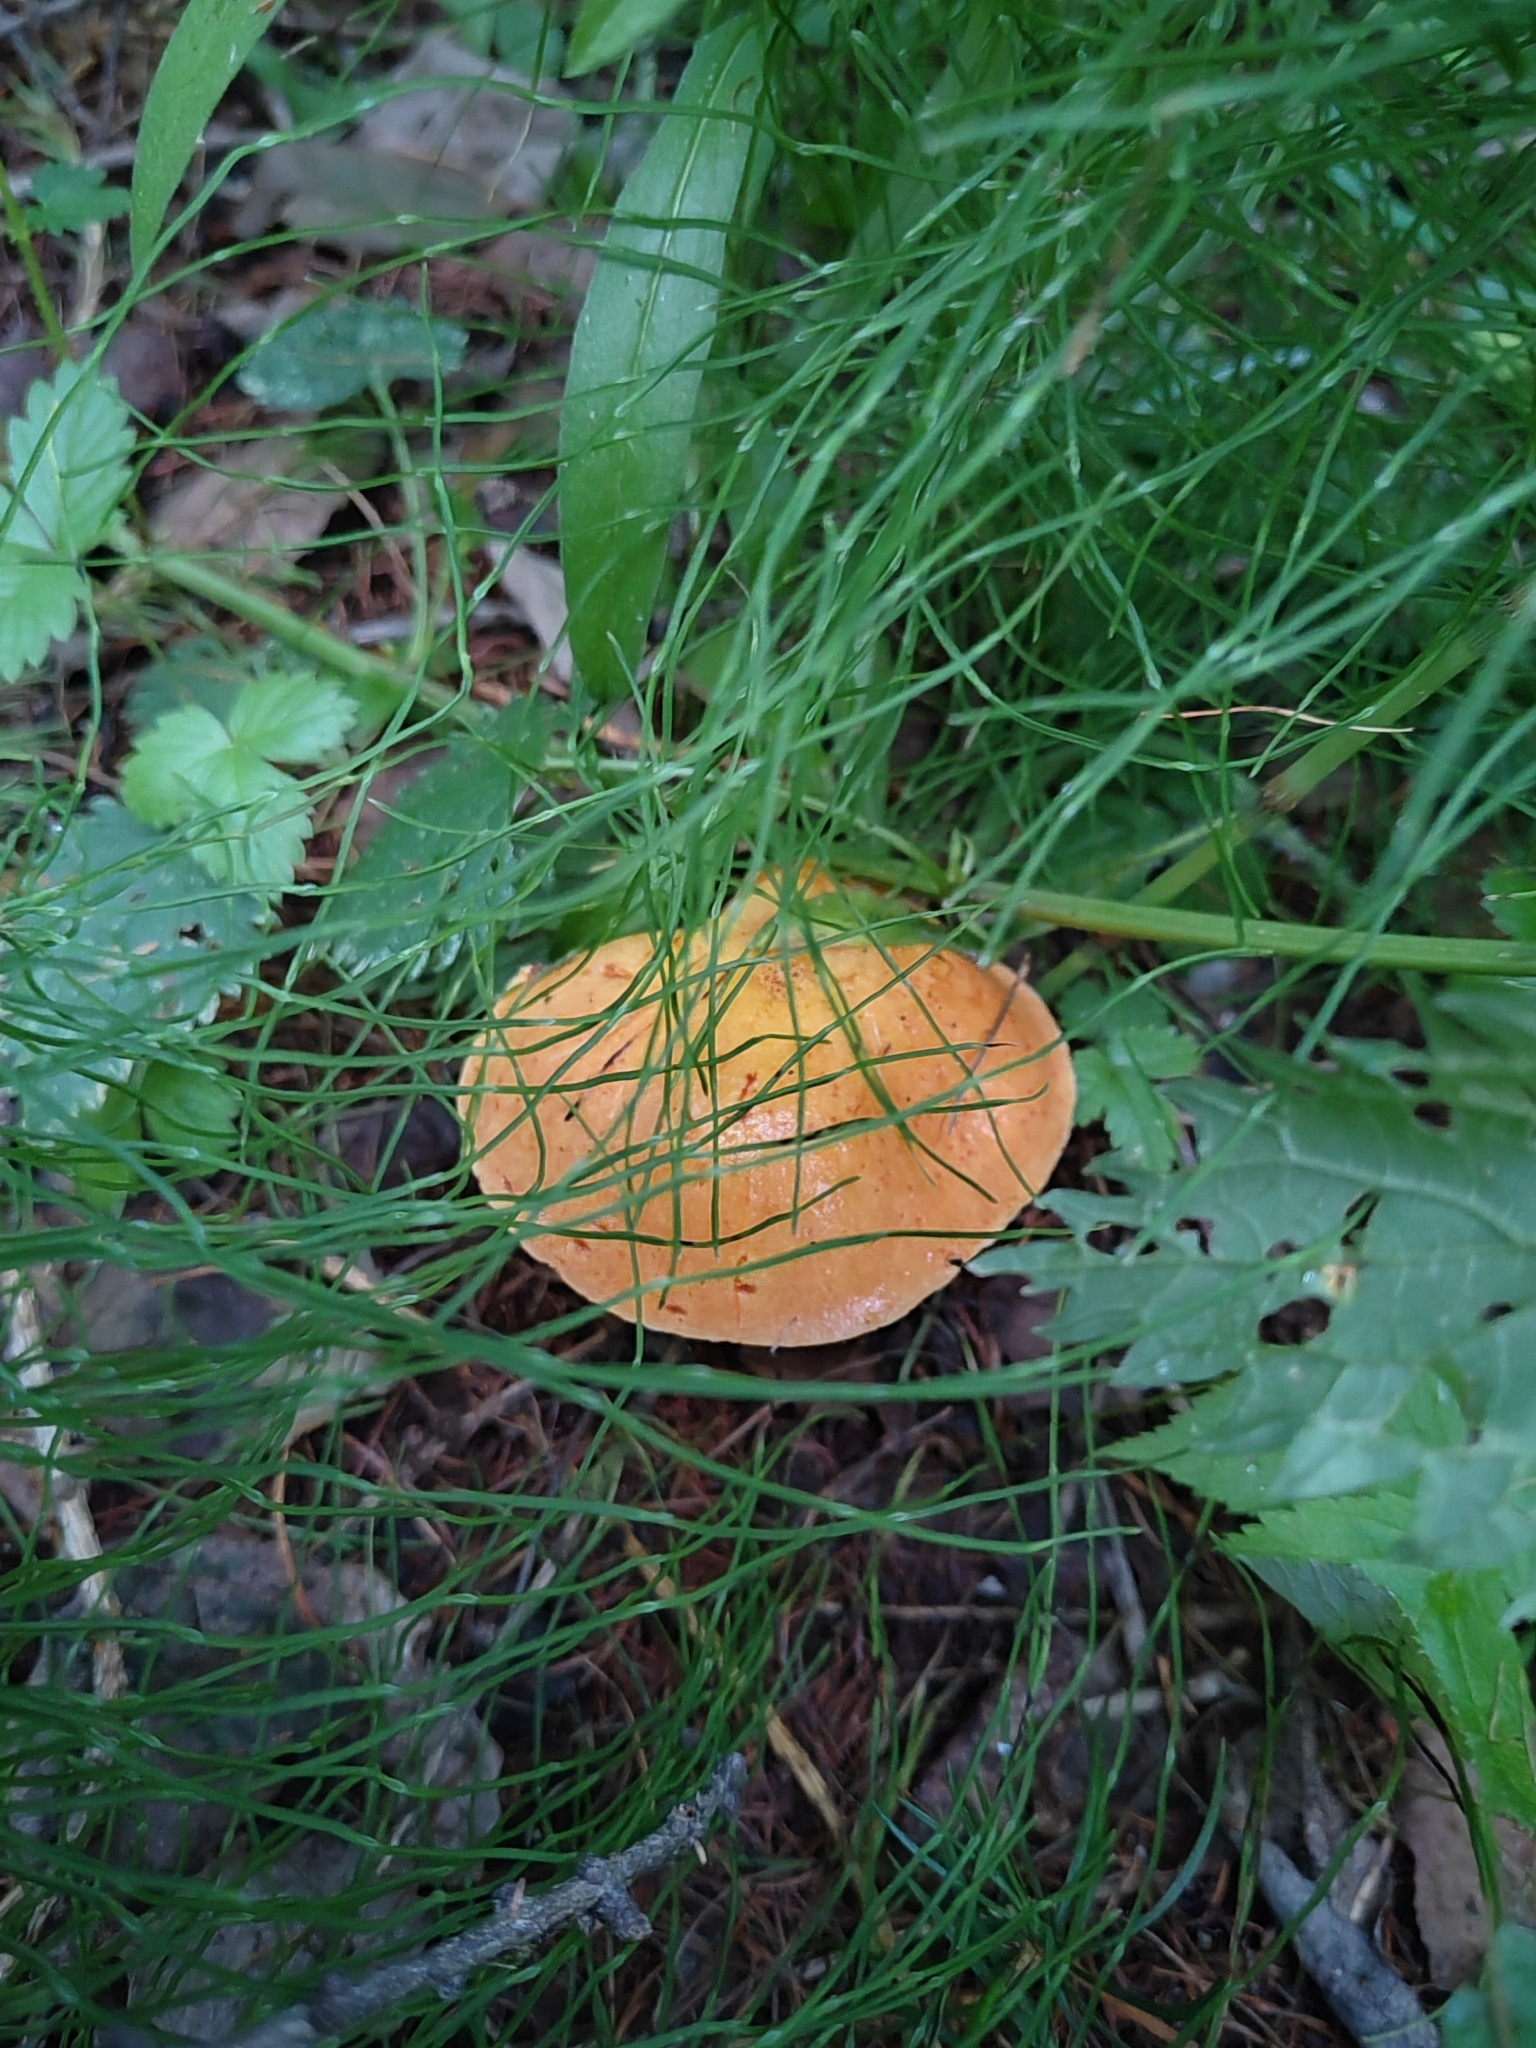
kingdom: Fungi
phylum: Basidiomycota
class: Agaricomycetes
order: Boletales
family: Suillaceae
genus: Suillus
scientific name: Suillus grevillei
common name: Larch bolete
